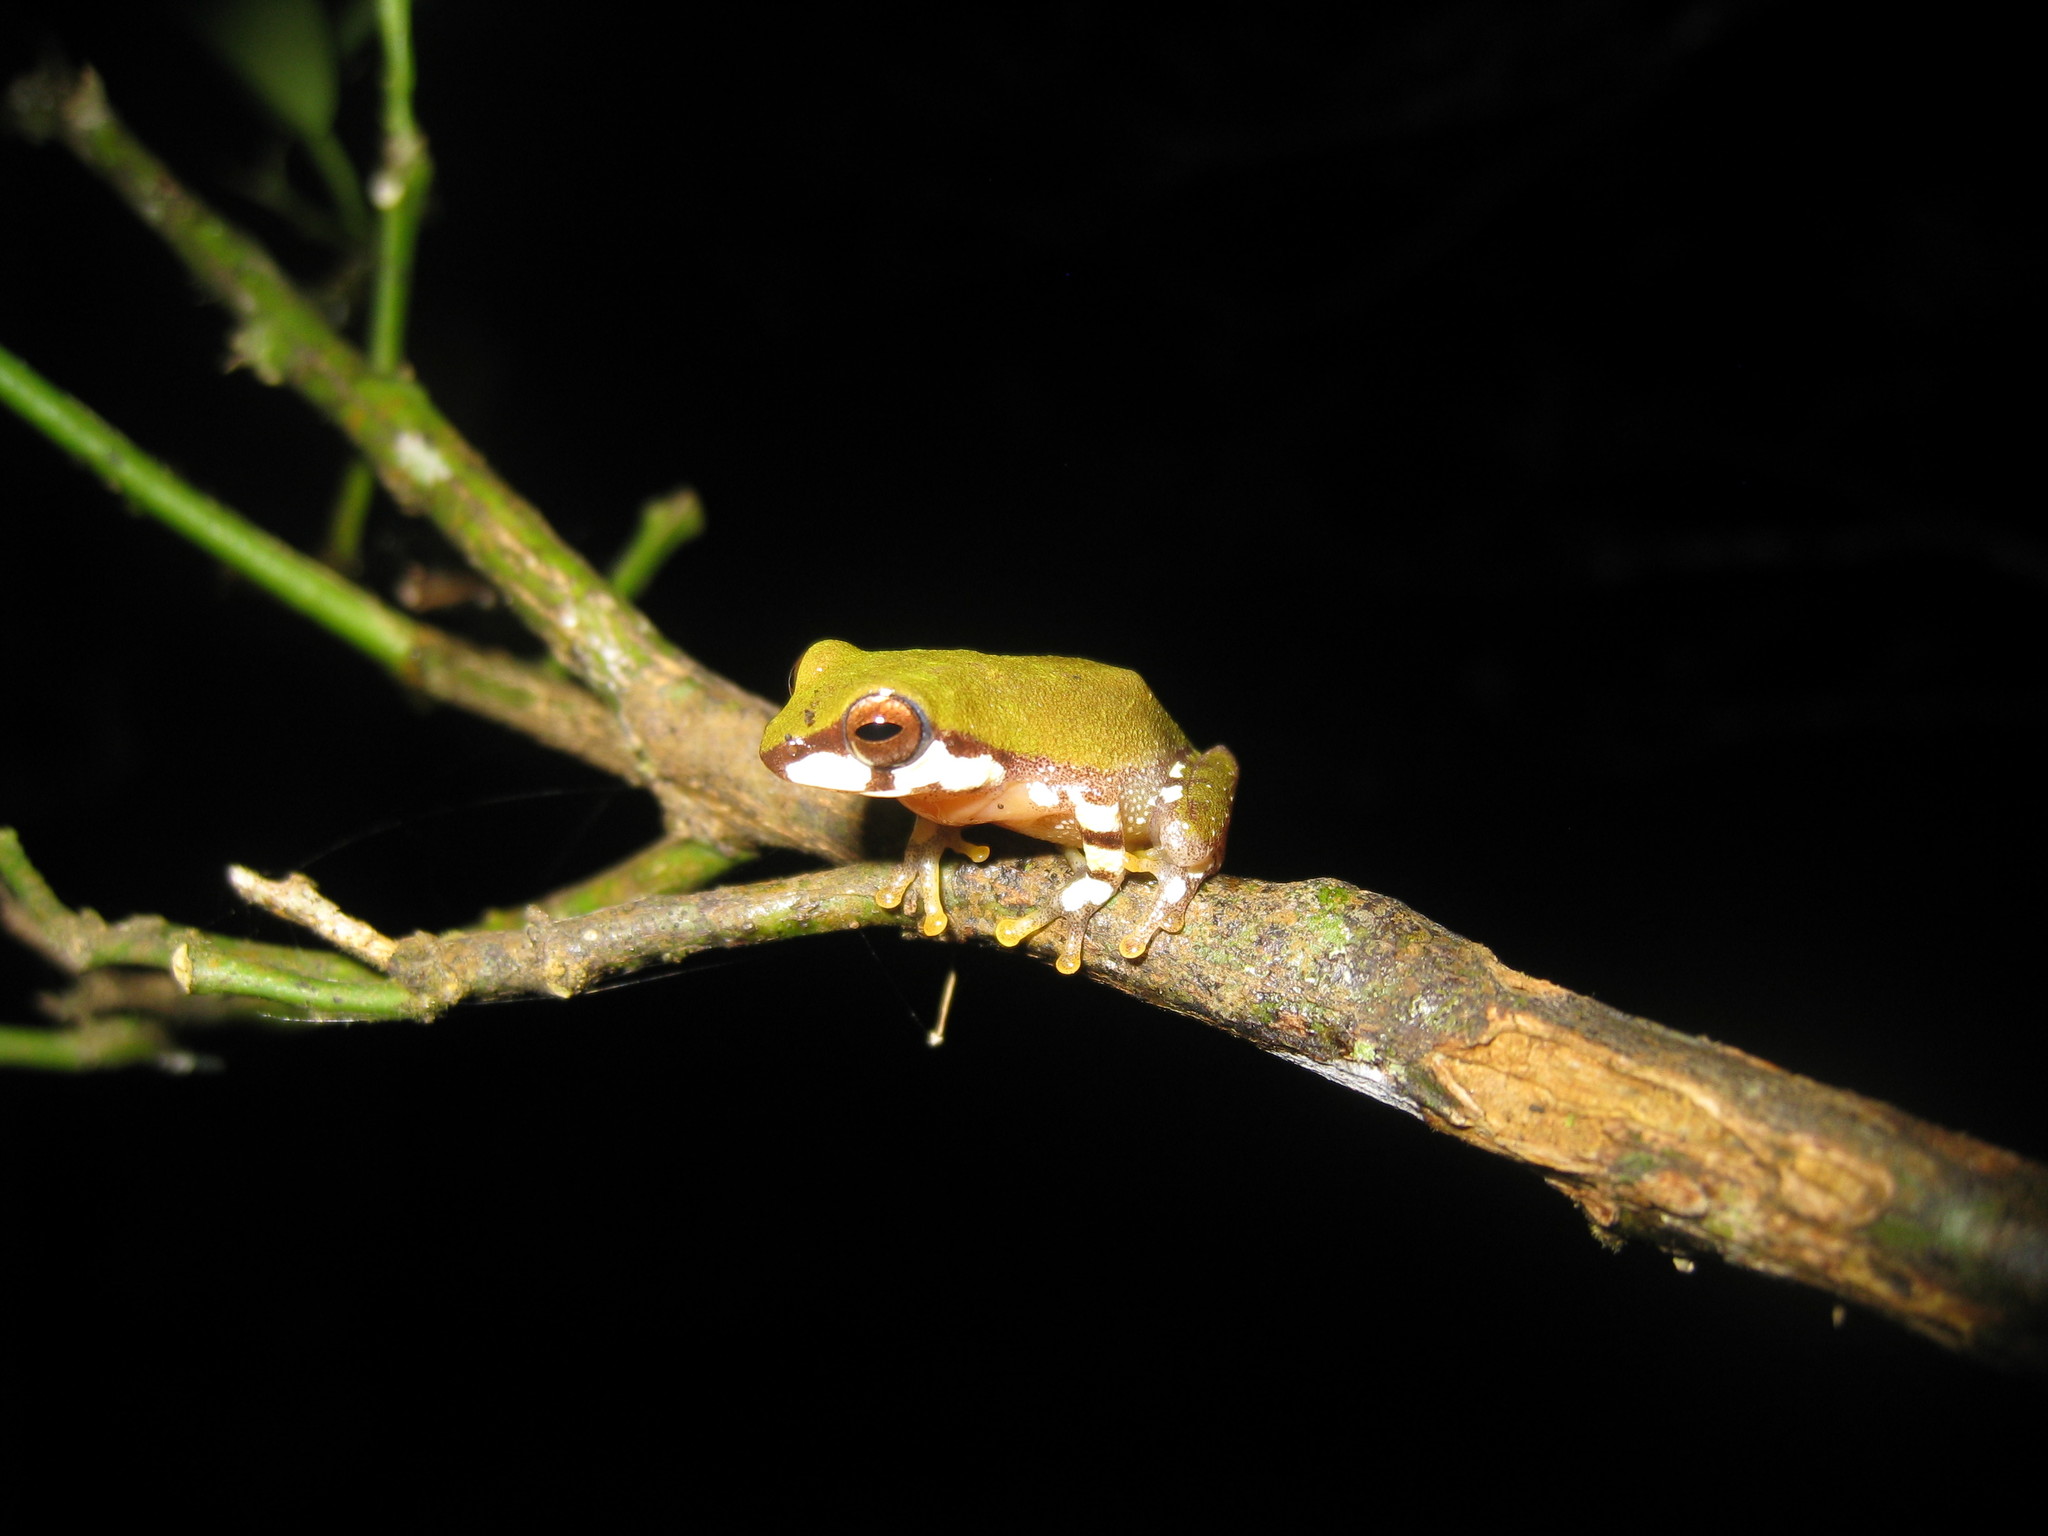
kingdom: Animalia
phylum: Chordata
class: Amphibia
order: Anura
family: Rhacophoridae
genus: Raorchestes
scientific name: Raorchestes akroparallagi
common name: Variable bush frog
